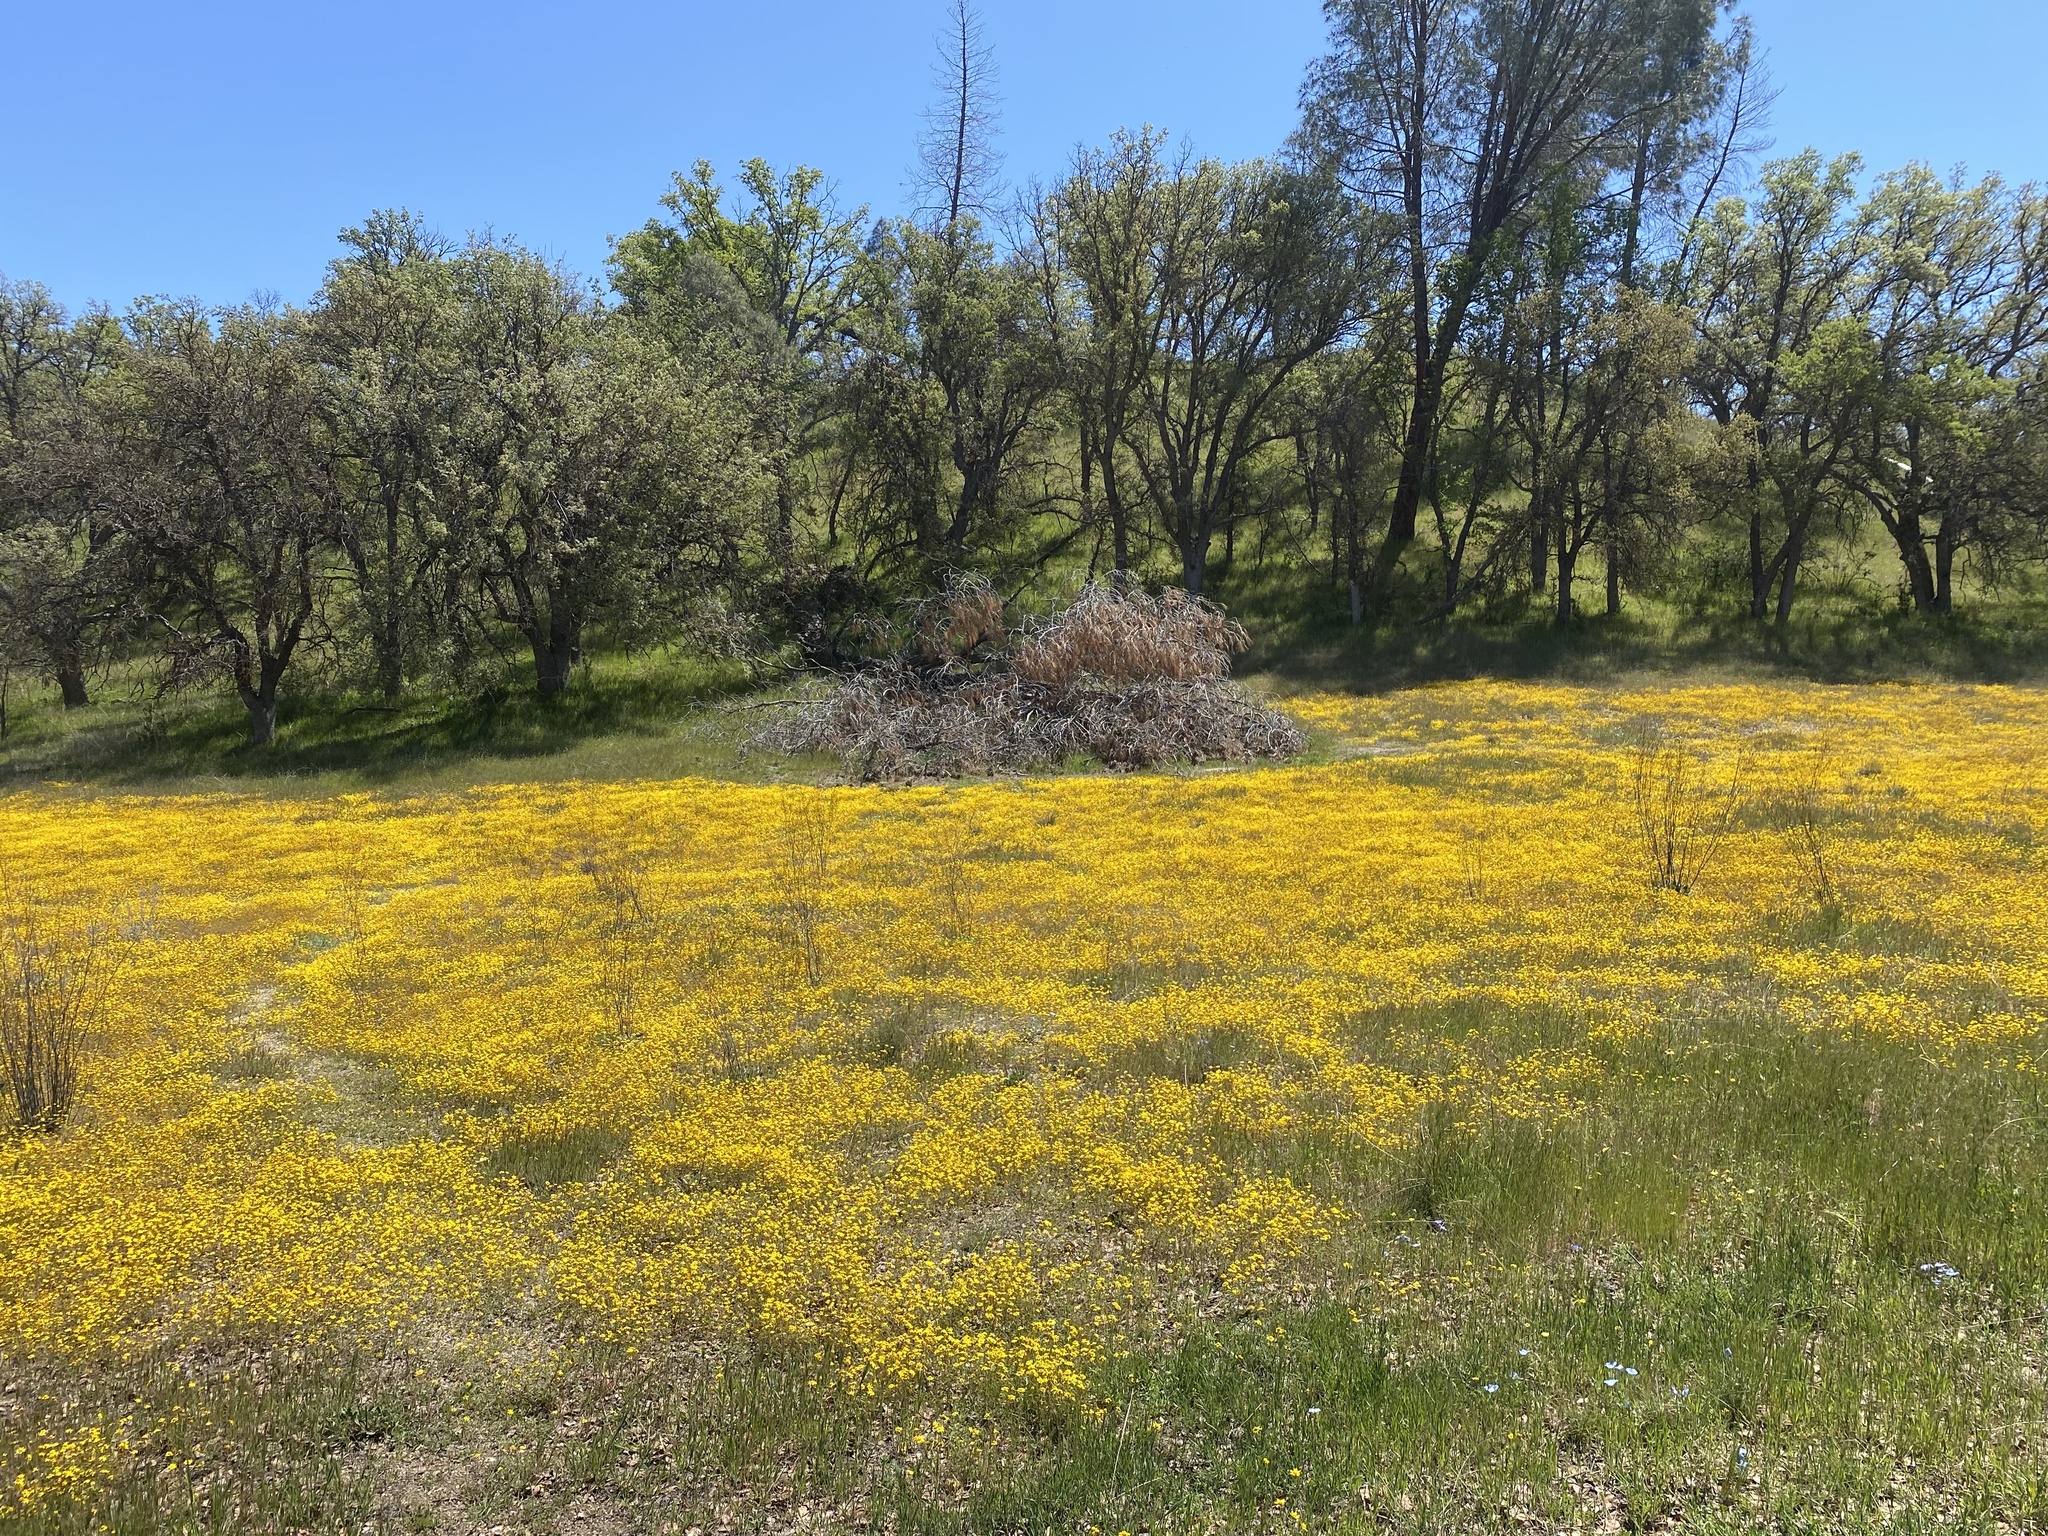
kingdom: Plantae
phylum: Tracheophyta
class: Magnoliopsida
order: Asterales
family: Asteraceae
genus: Lasthenia
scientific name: Lasthenia gracilis
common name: Common goldfields
